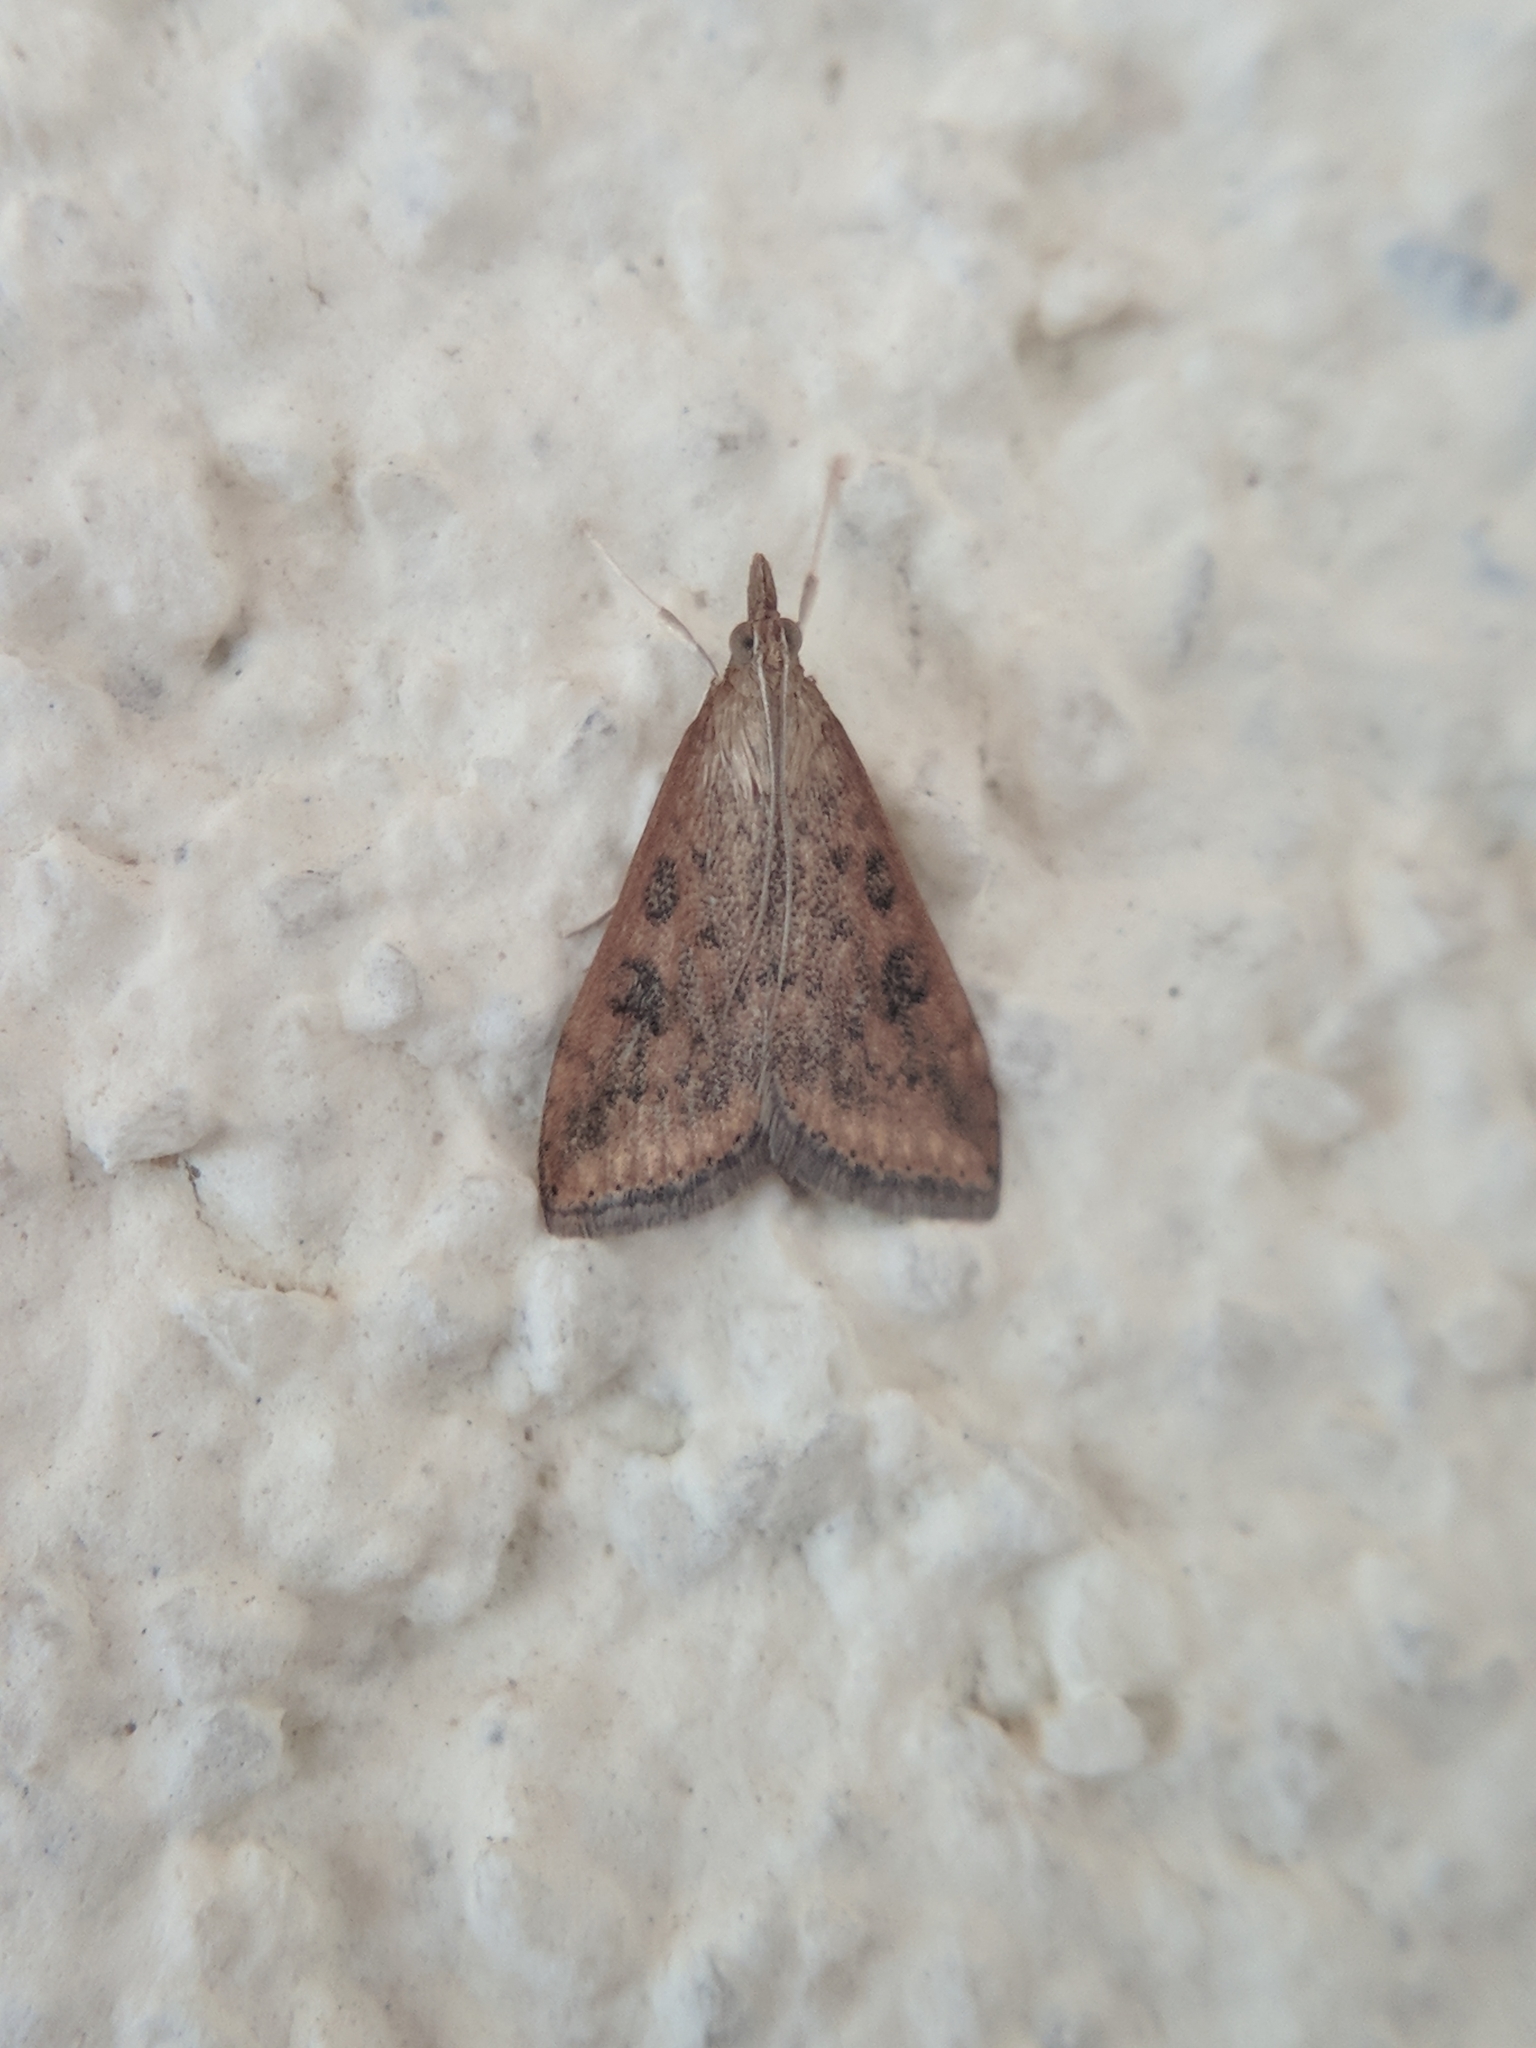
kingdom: Animalia
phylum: Arthropoda
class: Insecta
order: Lepidoptera
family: Crambidae
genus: Udea
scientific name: Udea ferrugalis
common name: Rusty dot
